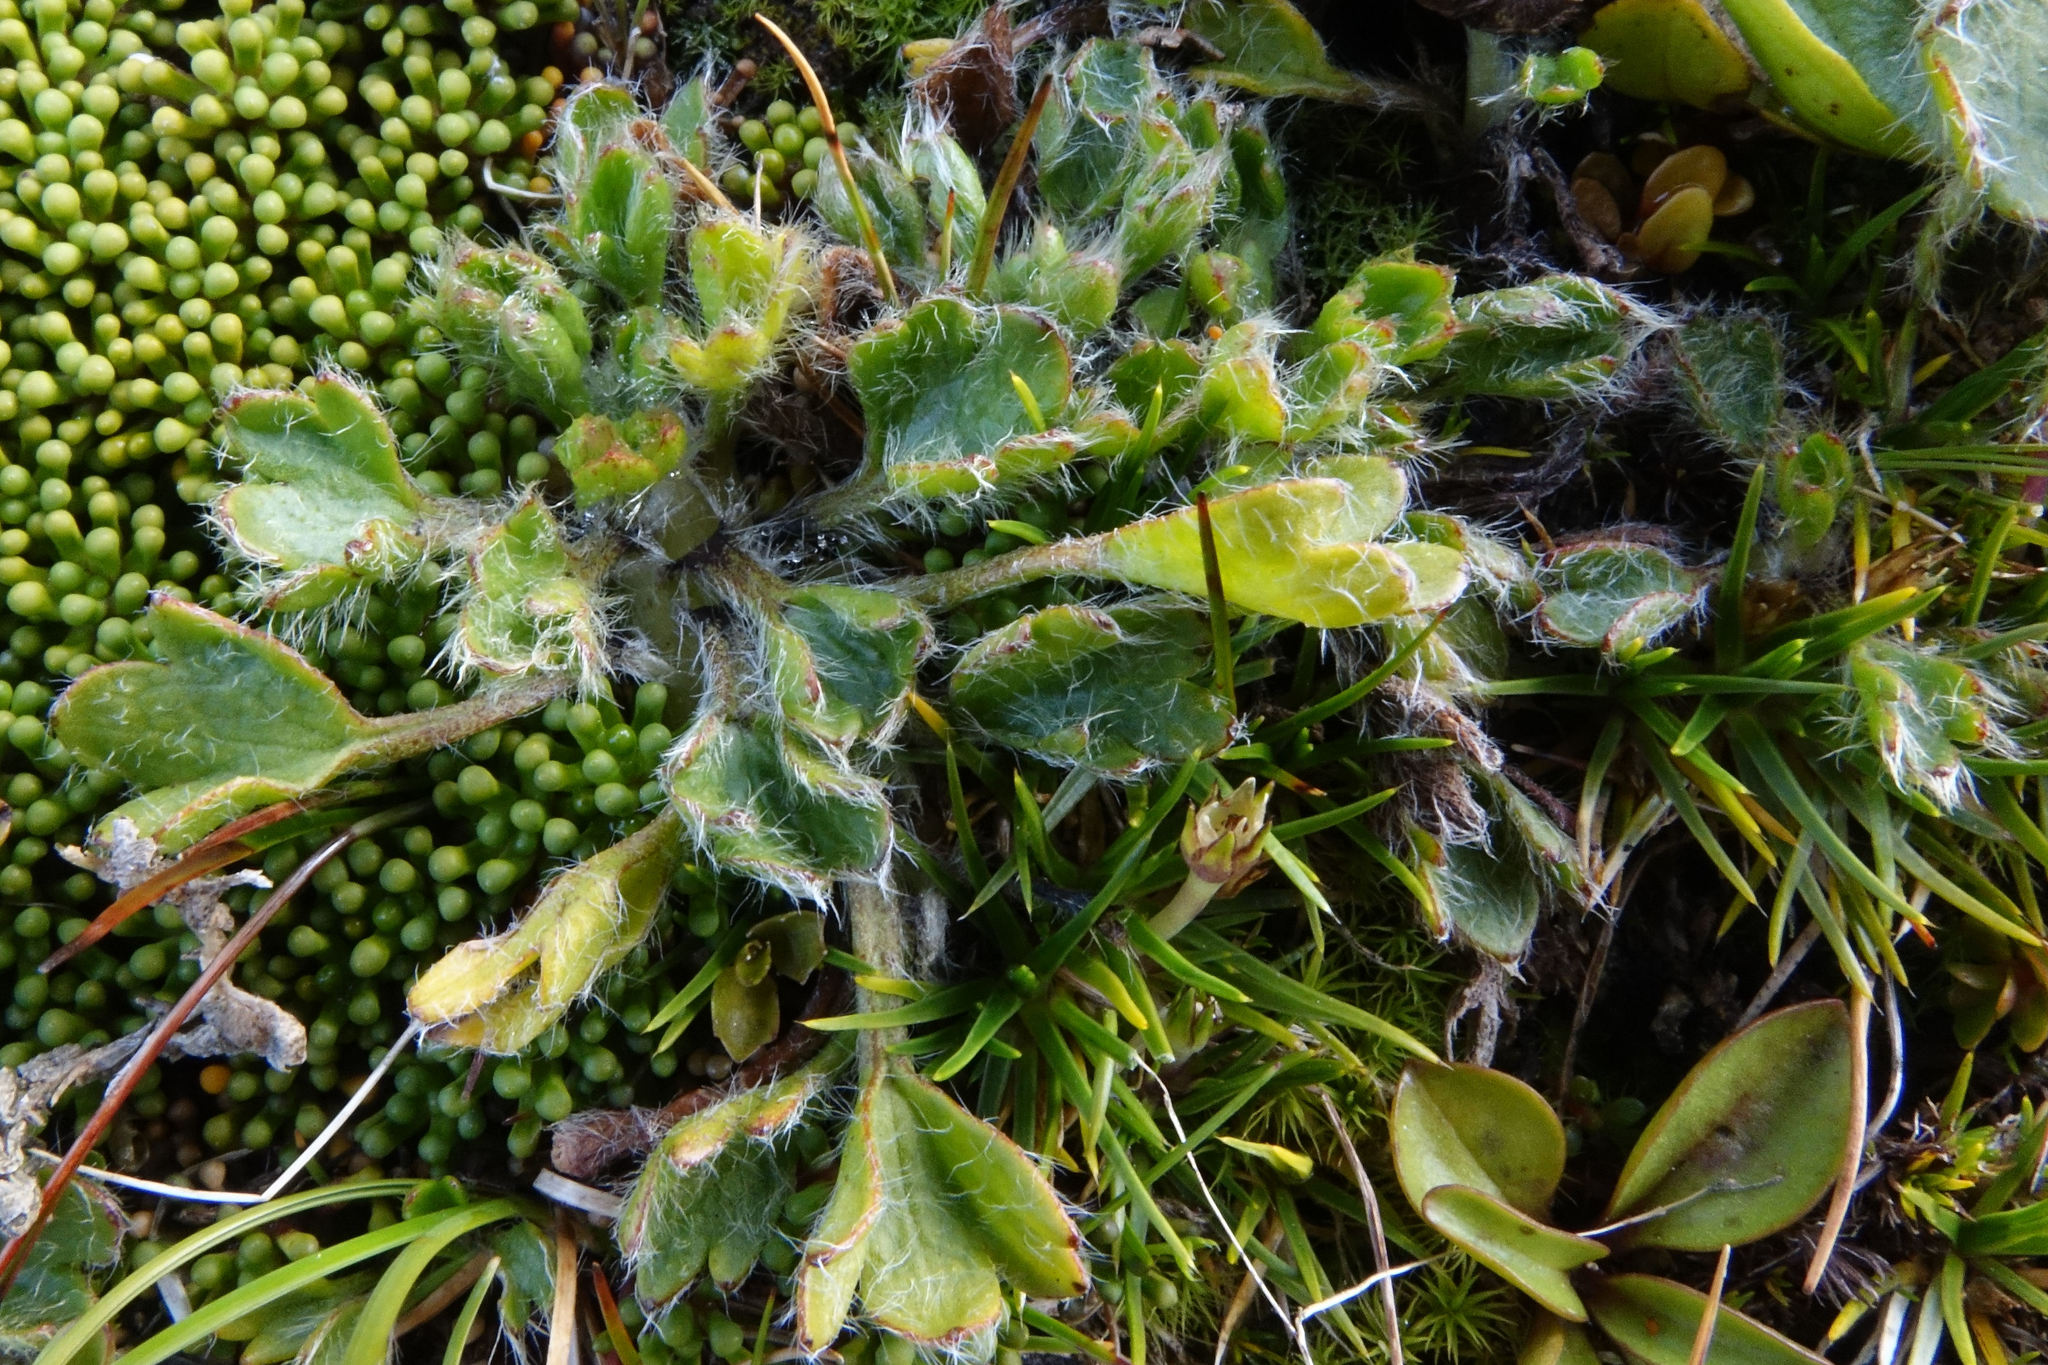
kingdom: Plantae
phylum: Tracheophyta
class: Magnoliopsida
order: Ranunculales
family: Ranunculaceae
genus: Ranunculus
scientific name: Ranunculus pachyrrhizus
